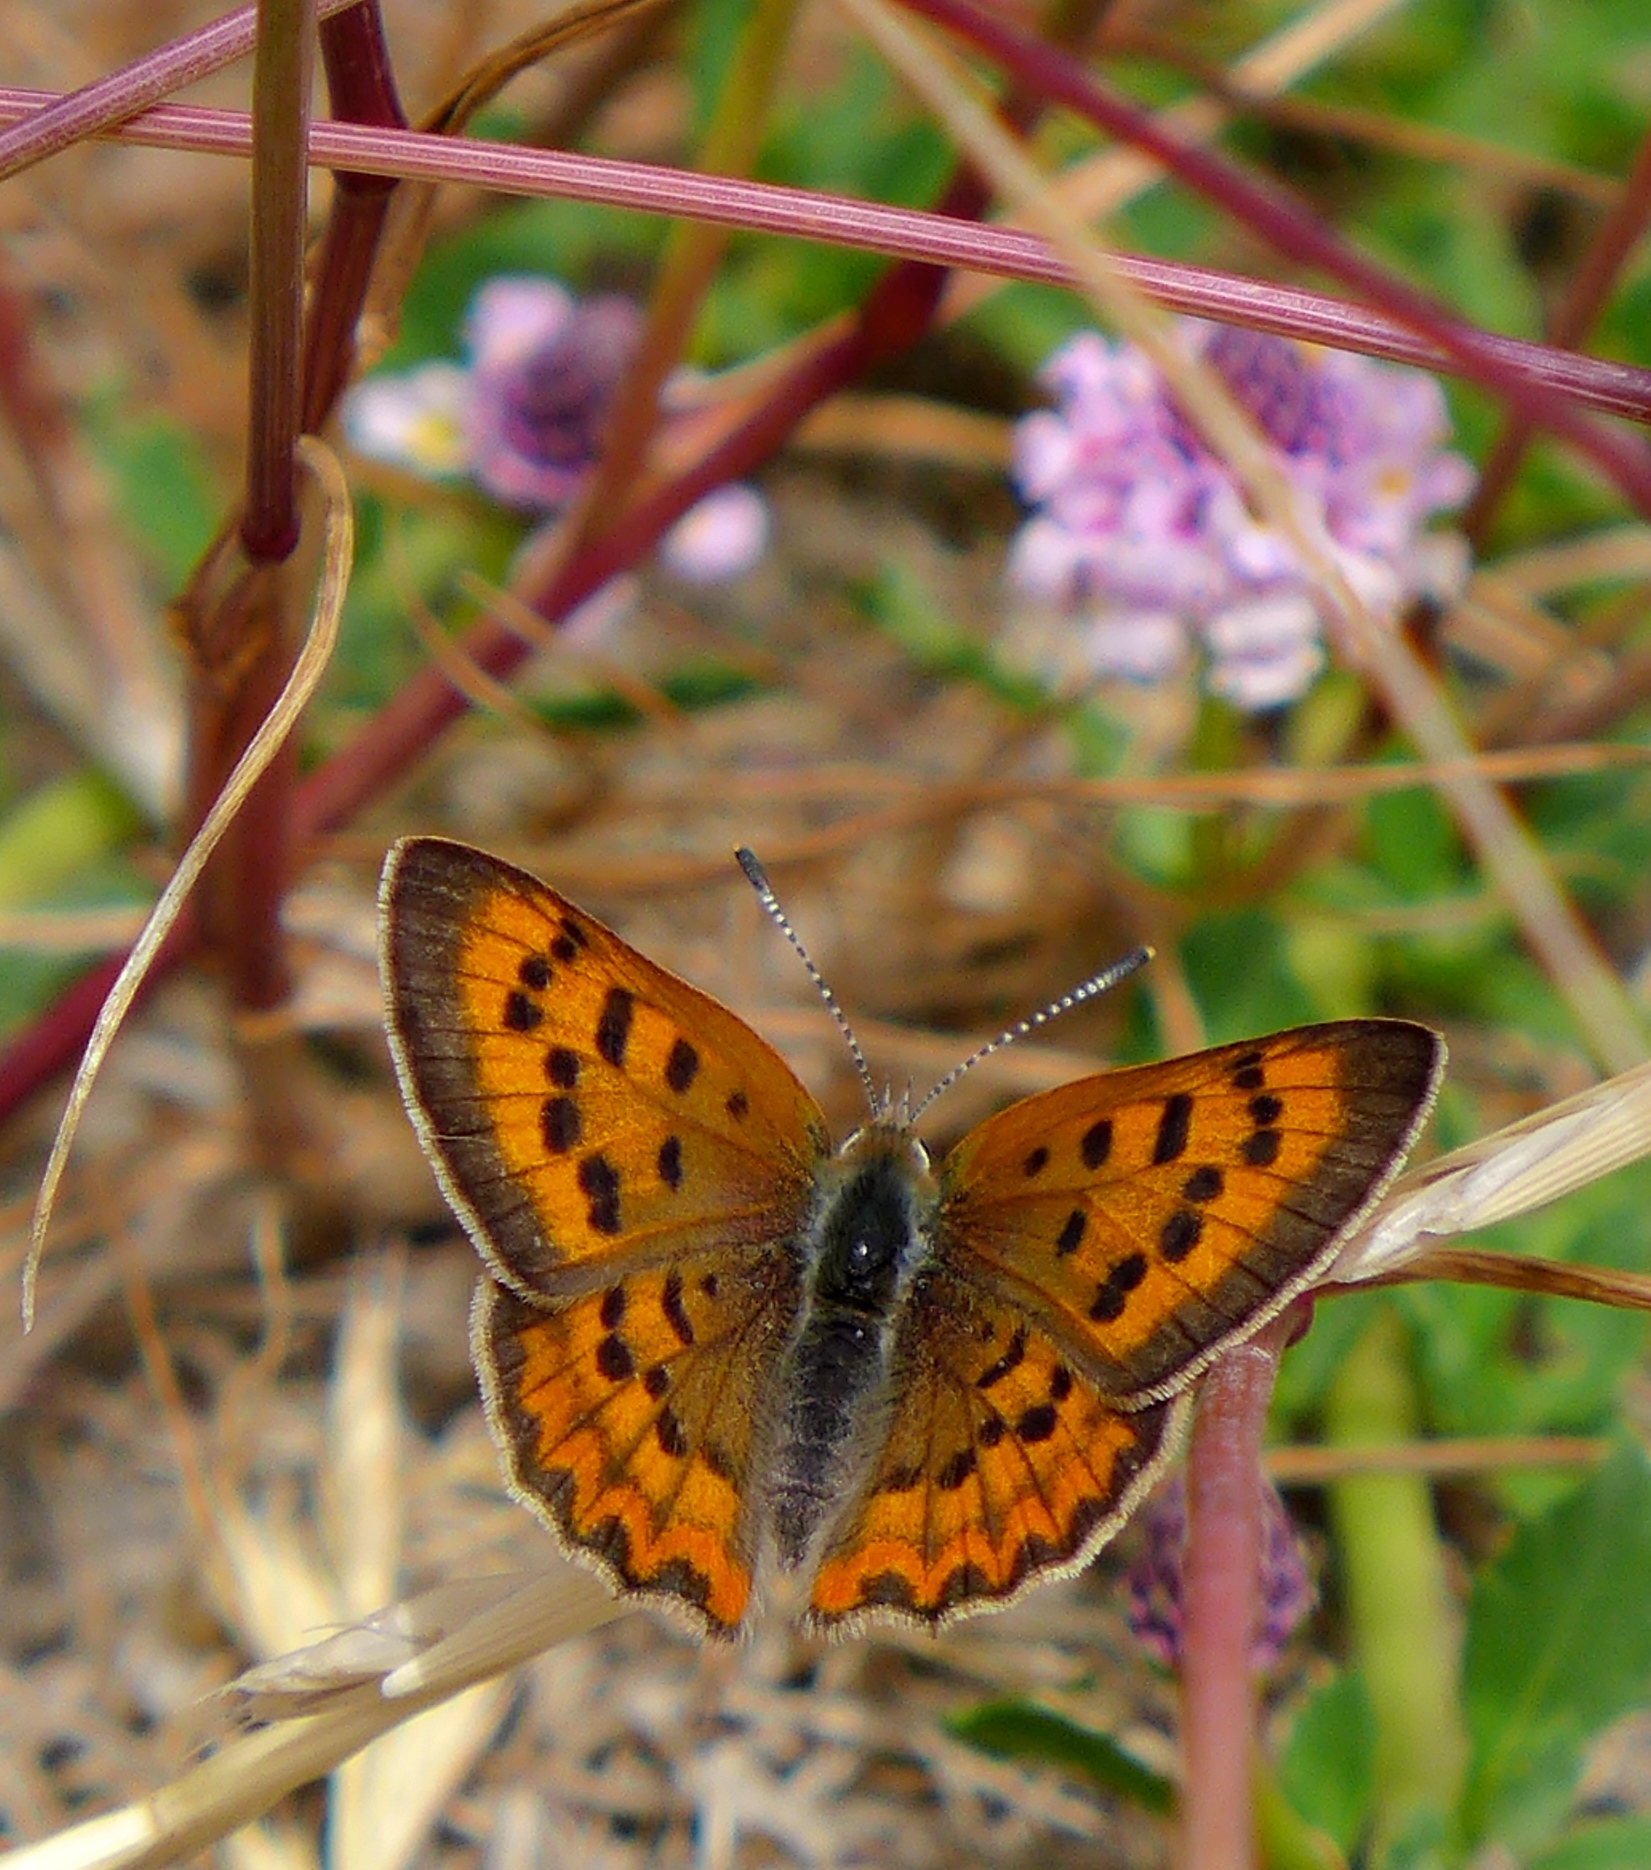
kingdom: Animalia
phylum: Arthropoda
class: Insecta
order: Lepidoptera
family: Lycaenidae
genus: Tharsalea
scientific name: Tharsalea helloides
